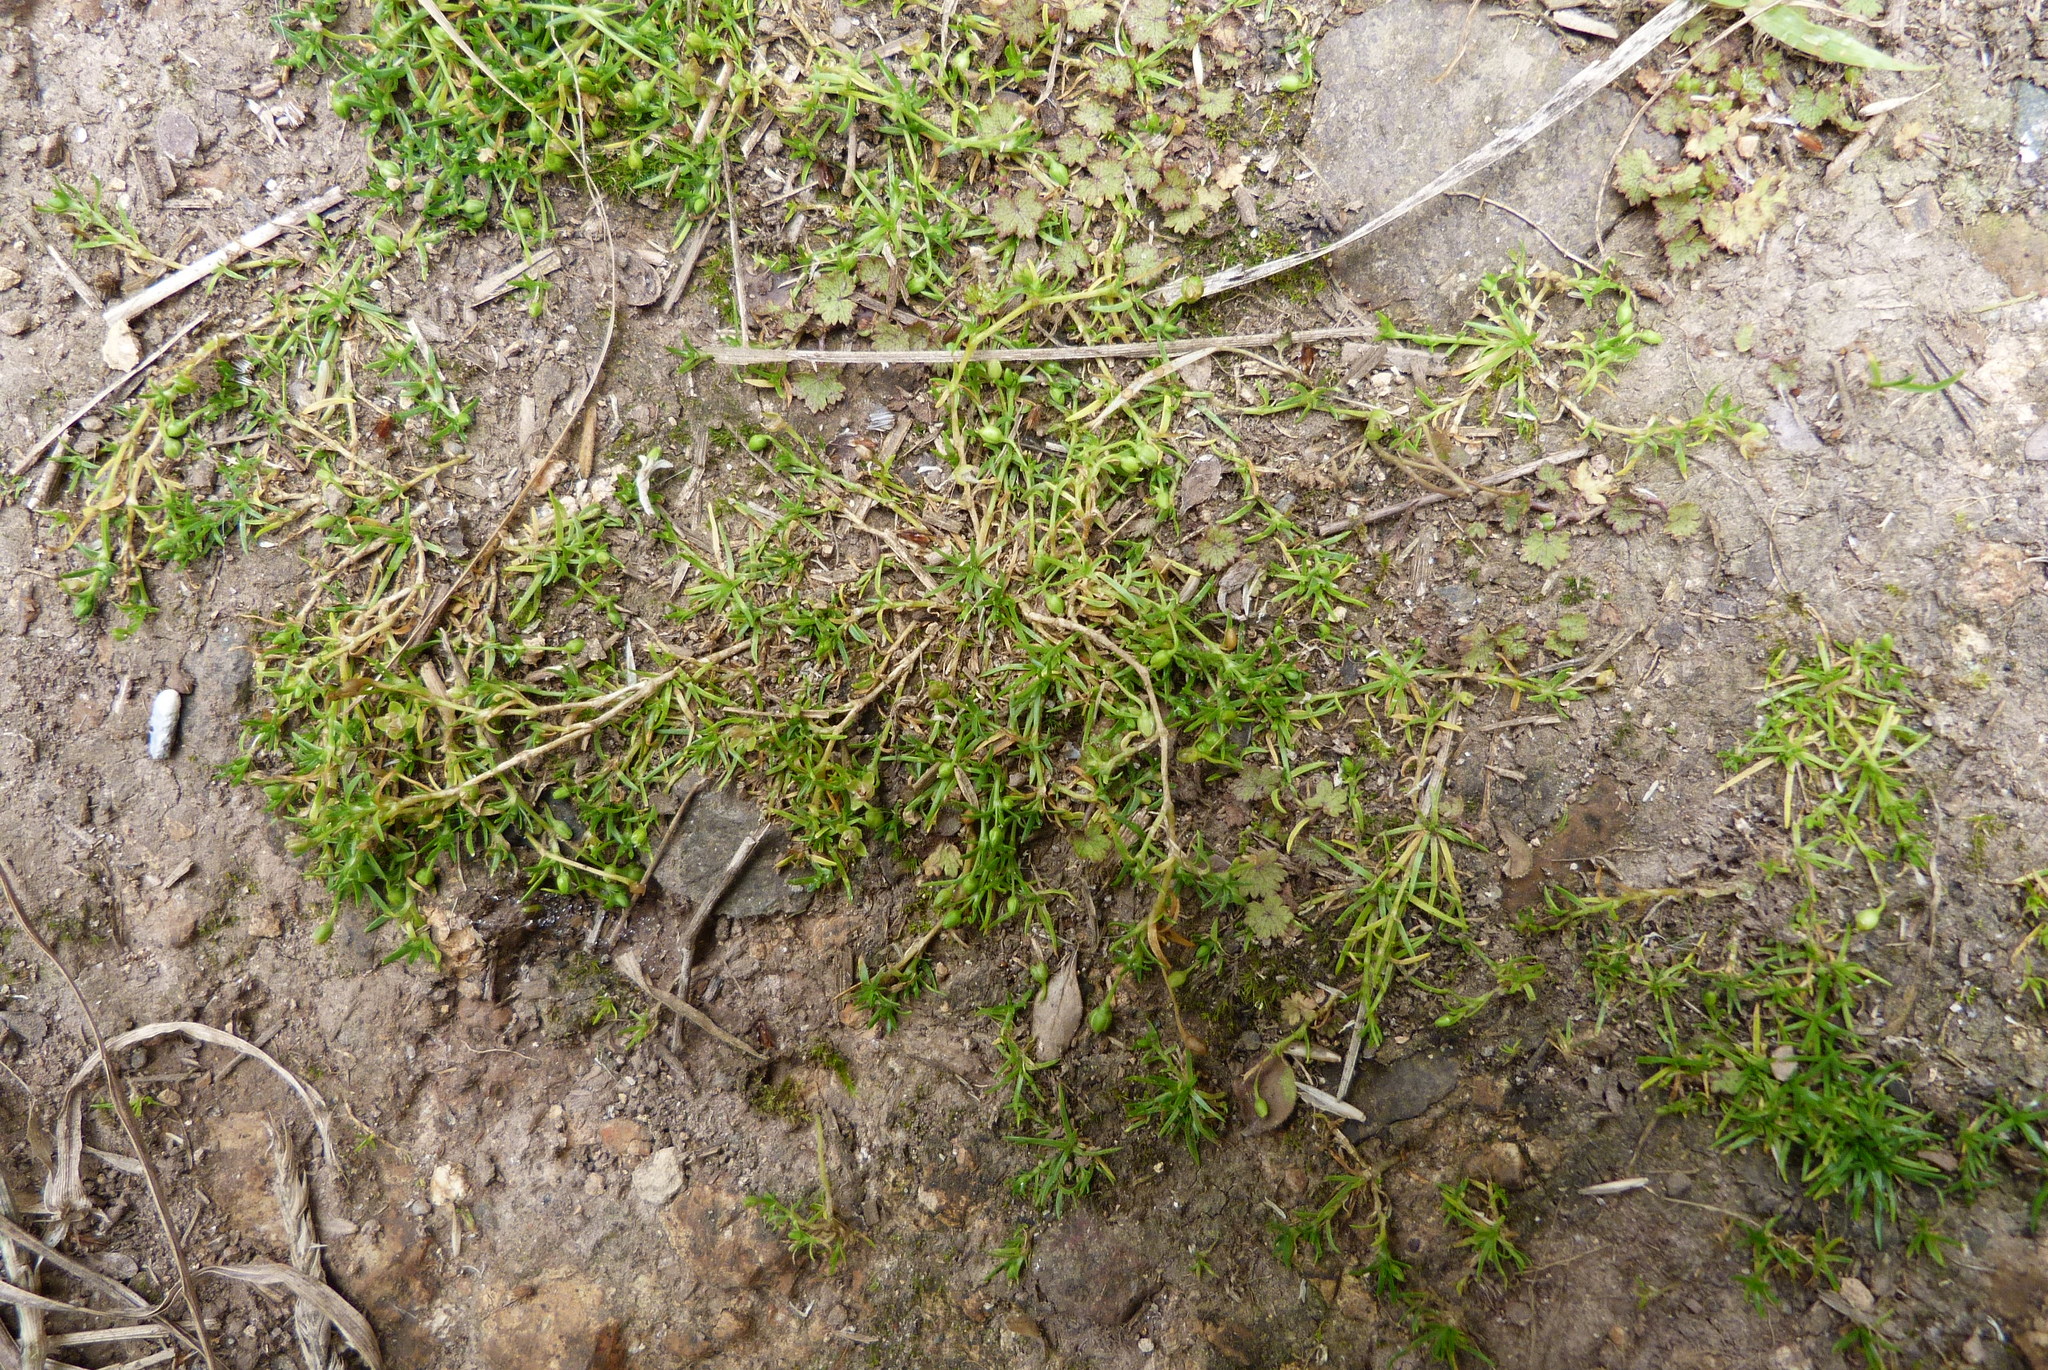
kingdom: Plantae
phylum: Tracheophyta
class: Magnoliopsida
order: Caryophyllales
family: Caryophyllaceae
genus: Sagina
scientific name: Sagina procumbens
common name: Procumbent pearlwort
